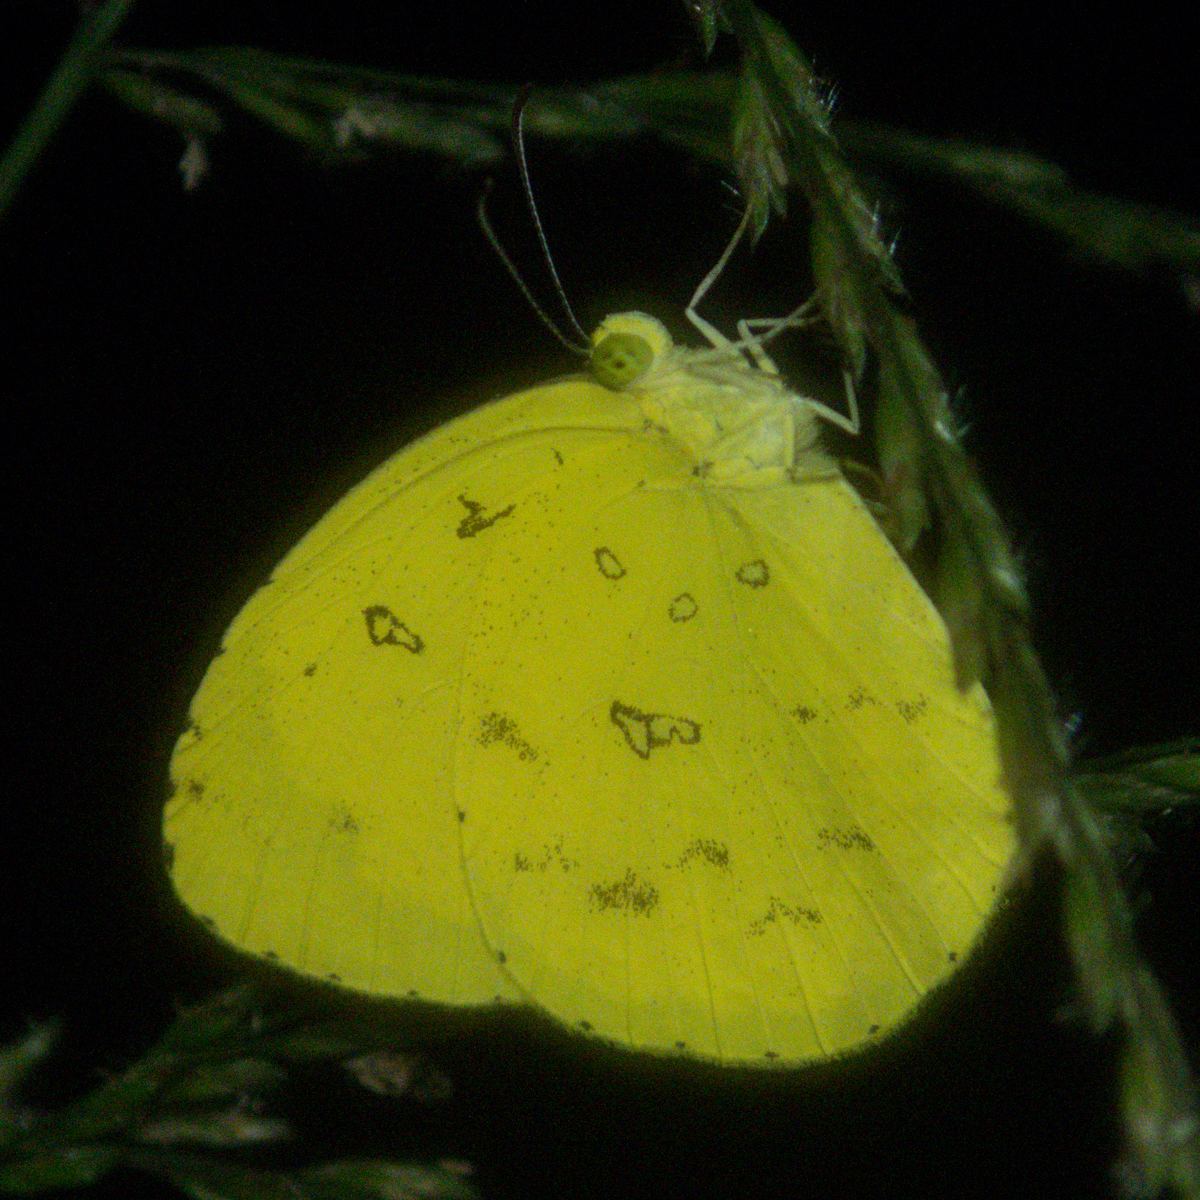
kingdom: Animalia
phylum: Arthropoda
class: Insecta
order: Lepidoptera
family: Pieridae
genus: Eurema
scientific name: Eurema simulatrix
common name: Hill grass yellow
